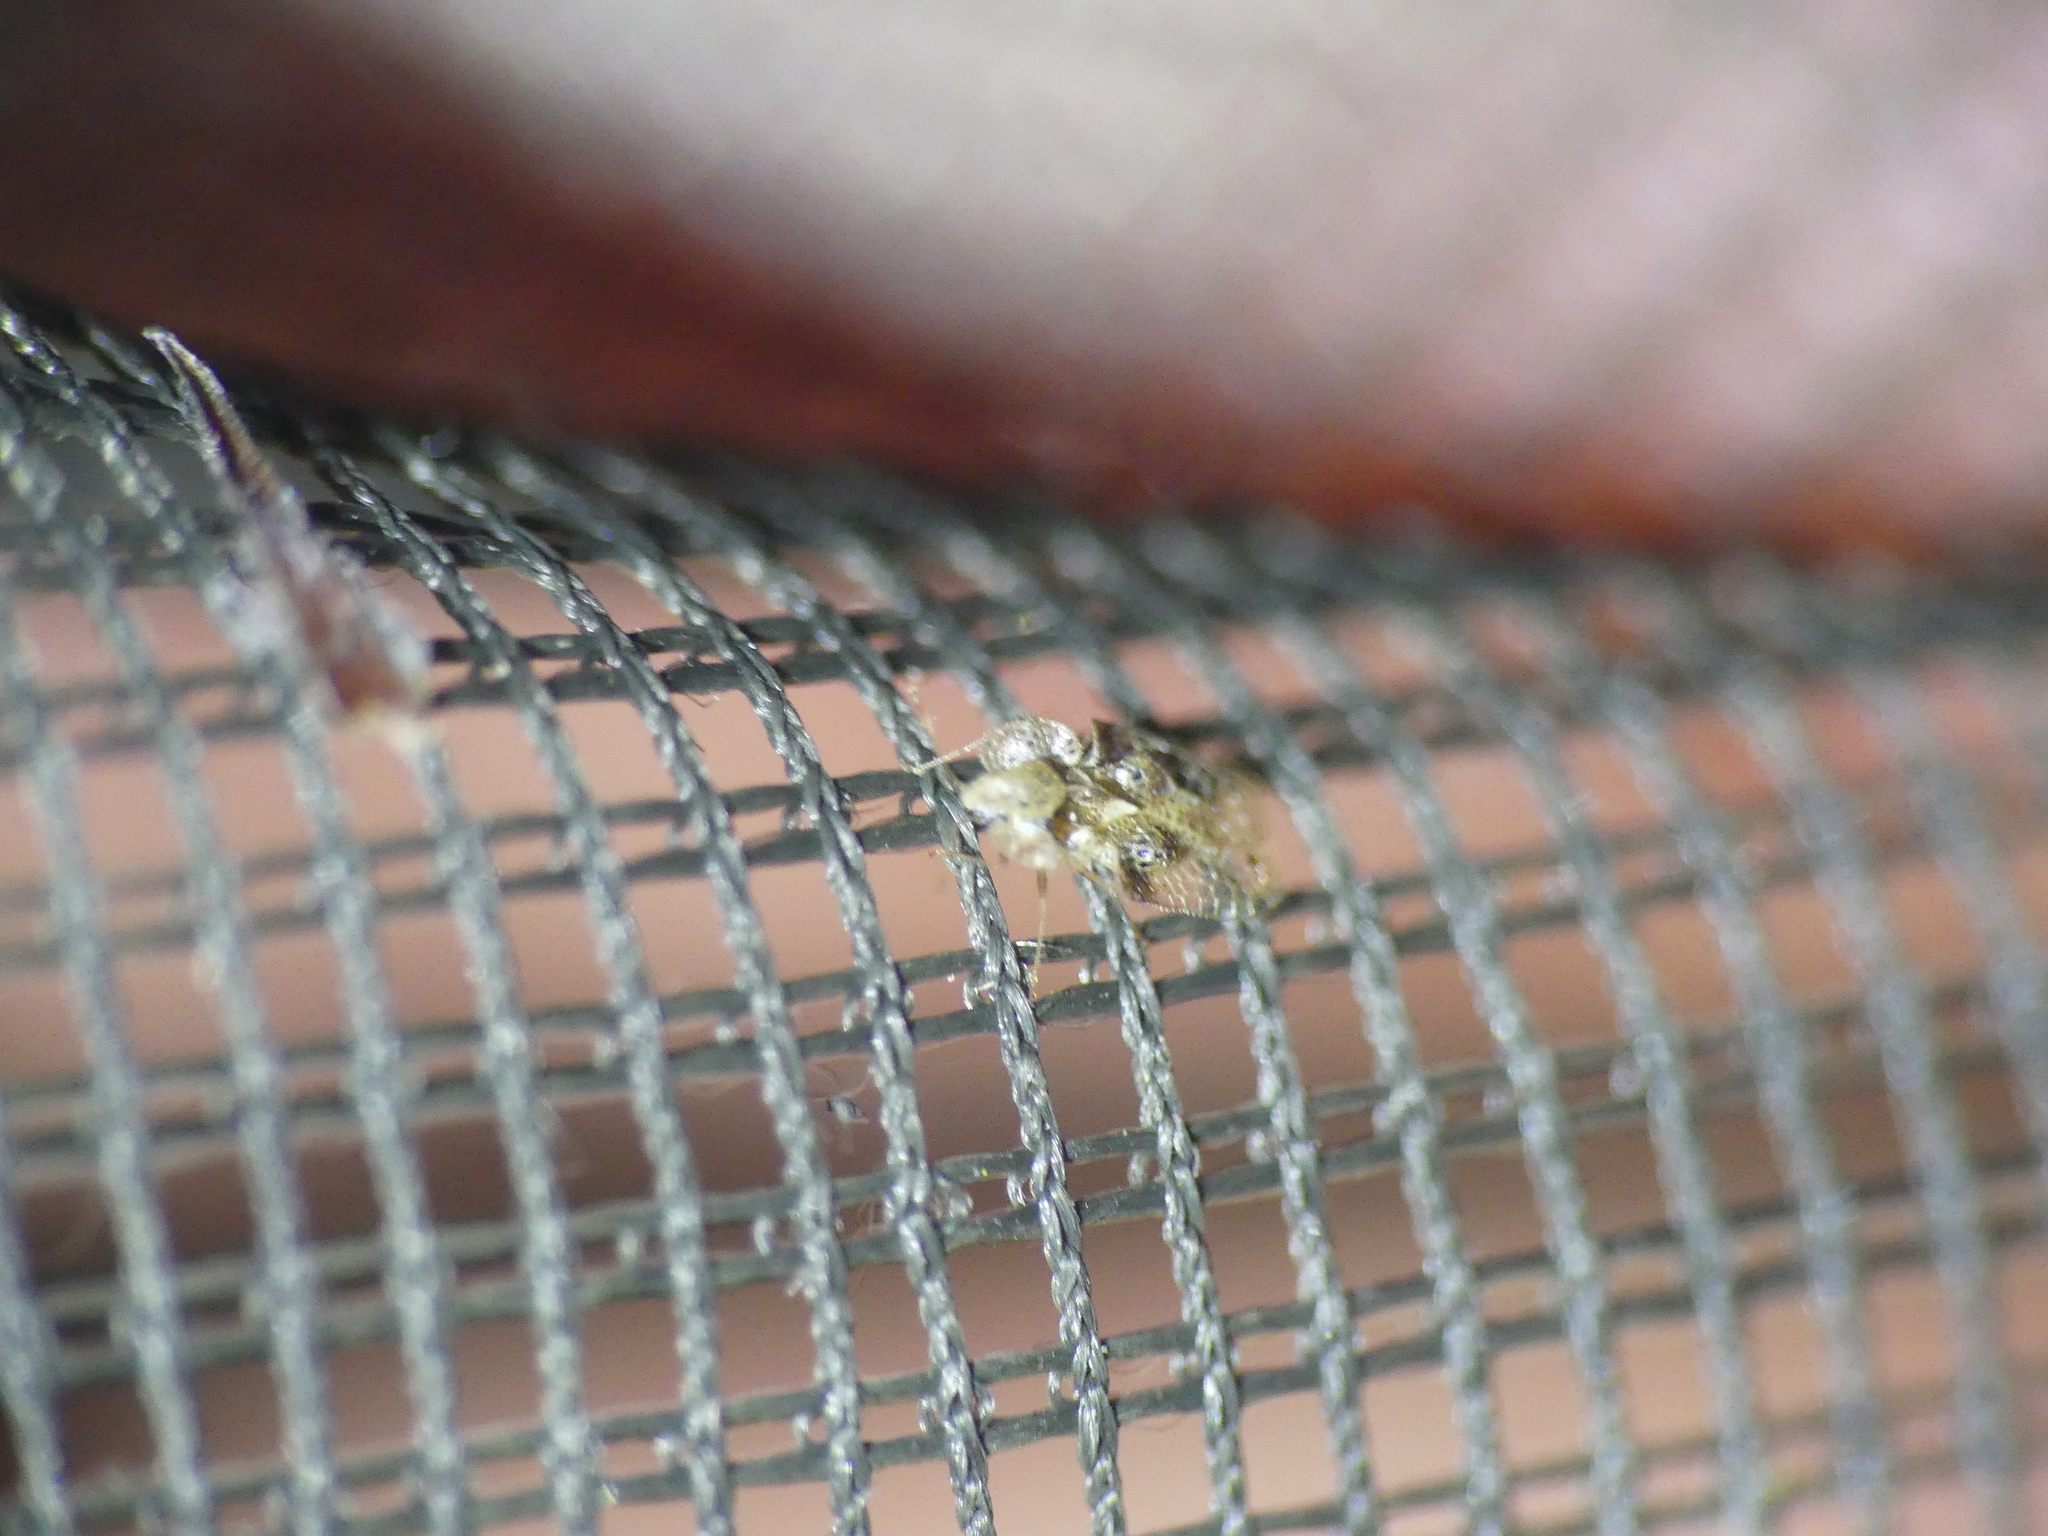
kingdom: Animalia
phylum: Arthropoda
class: Insecta
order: Hemiptera
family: Tingidae
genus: Corythucha
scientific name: Corythucha arcuata
